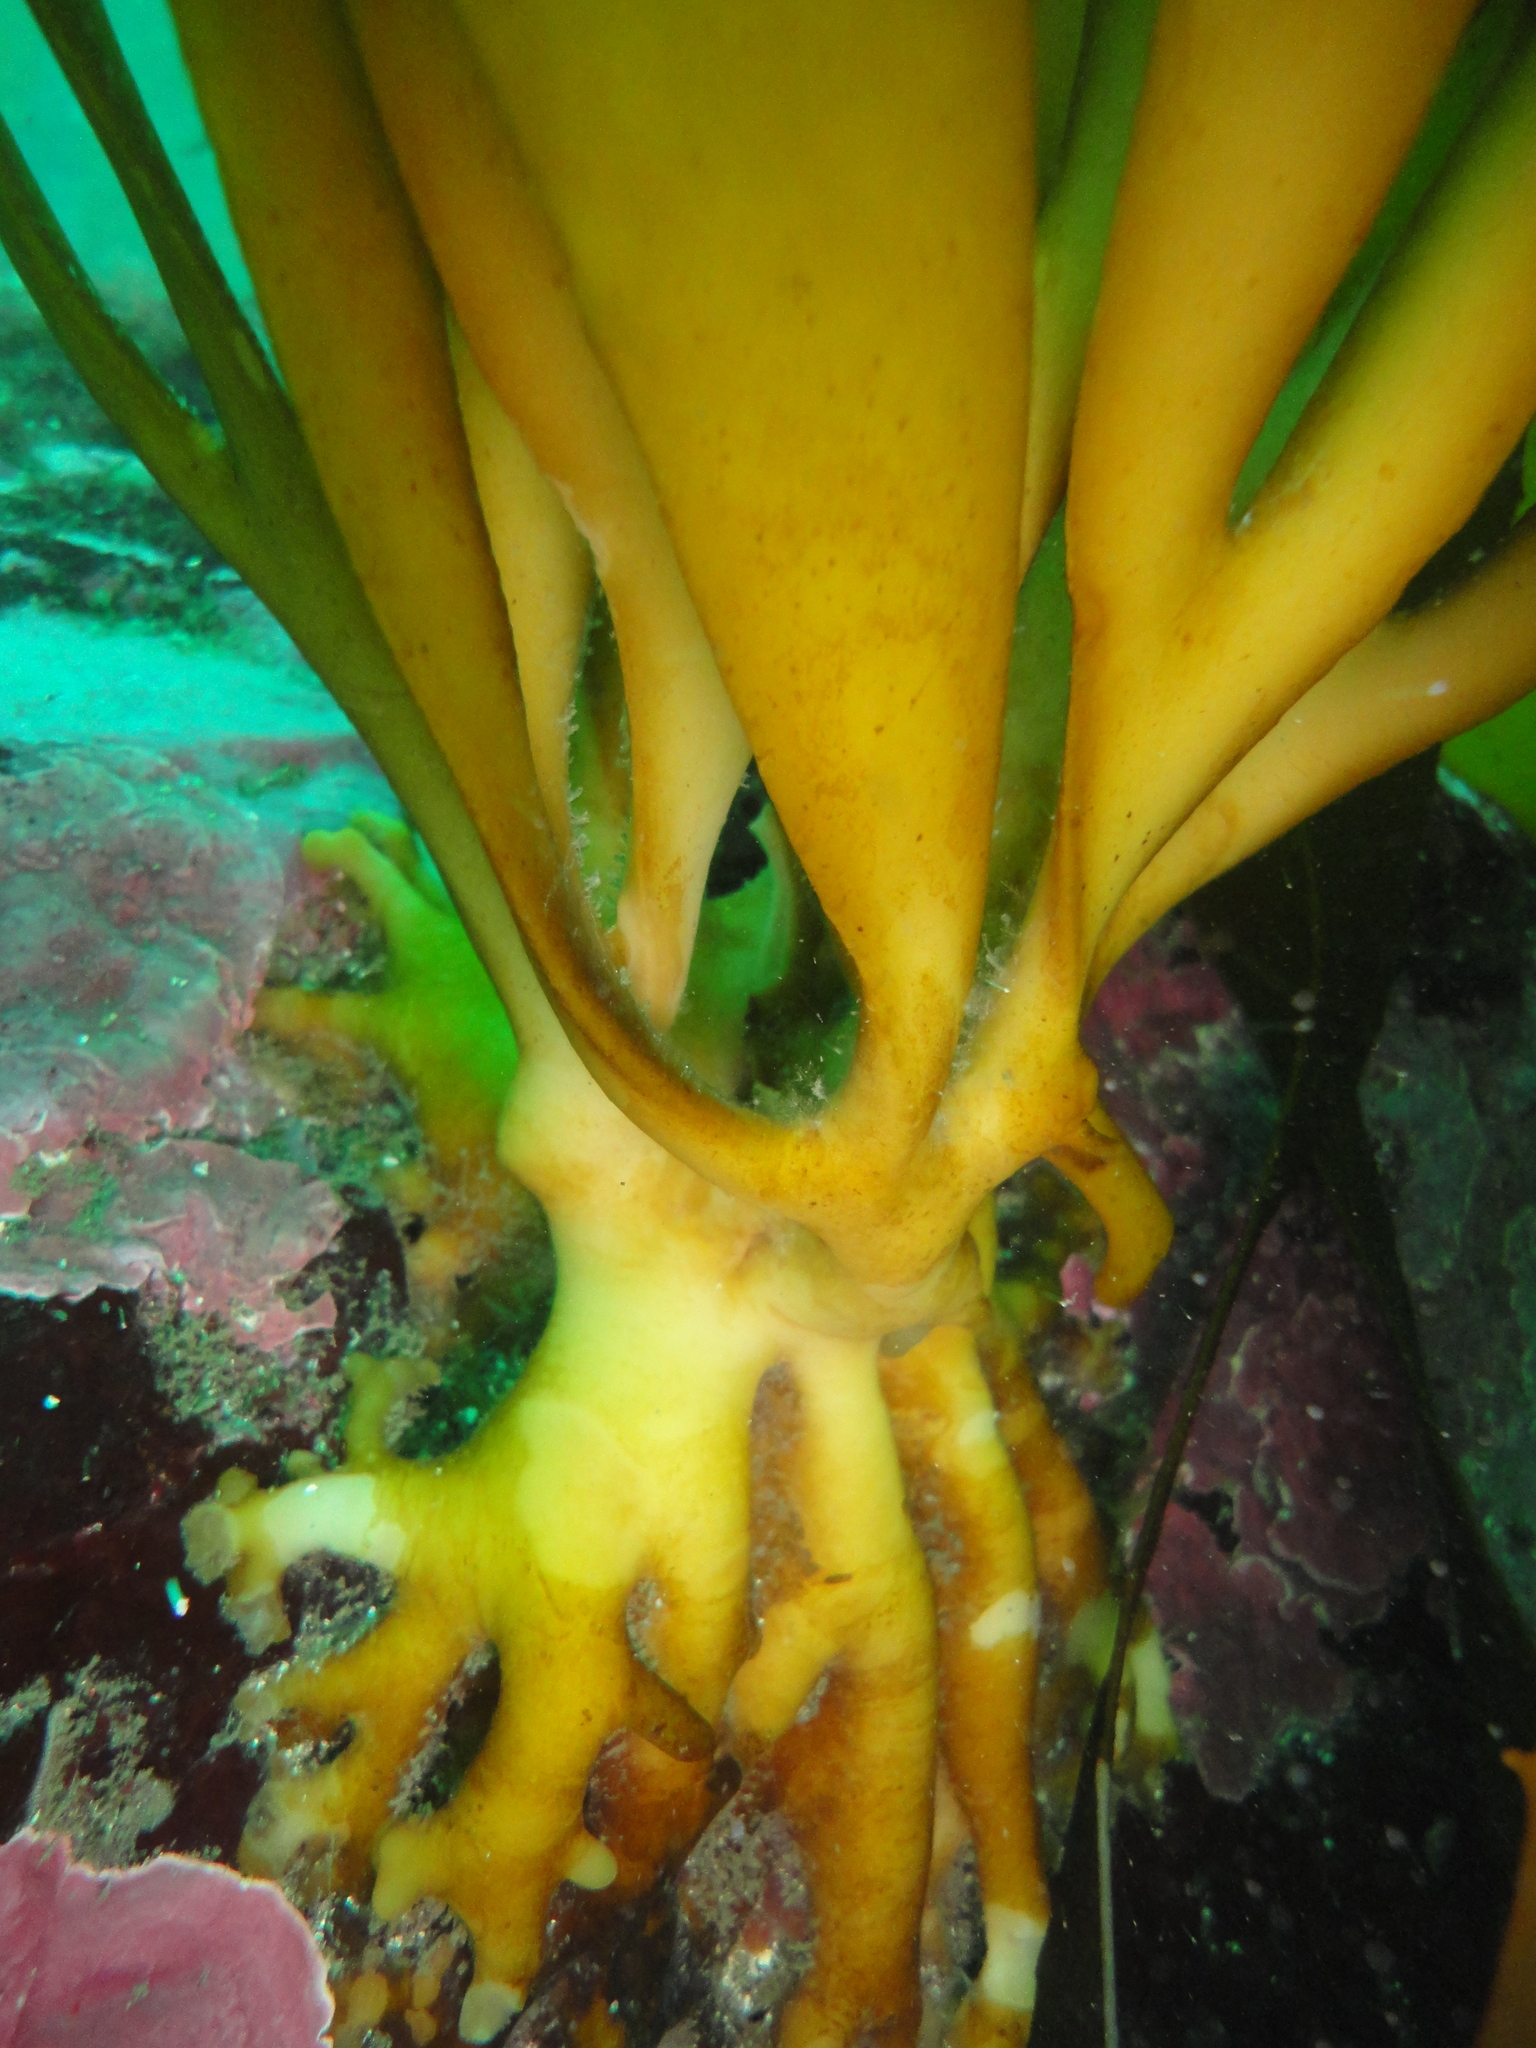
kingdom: Chromista
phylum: Ochrophyta
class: Phaeophyceae
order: Laminariales
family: Lessoniaceae
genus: Lessonia
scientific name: Lessonia trabeculata
